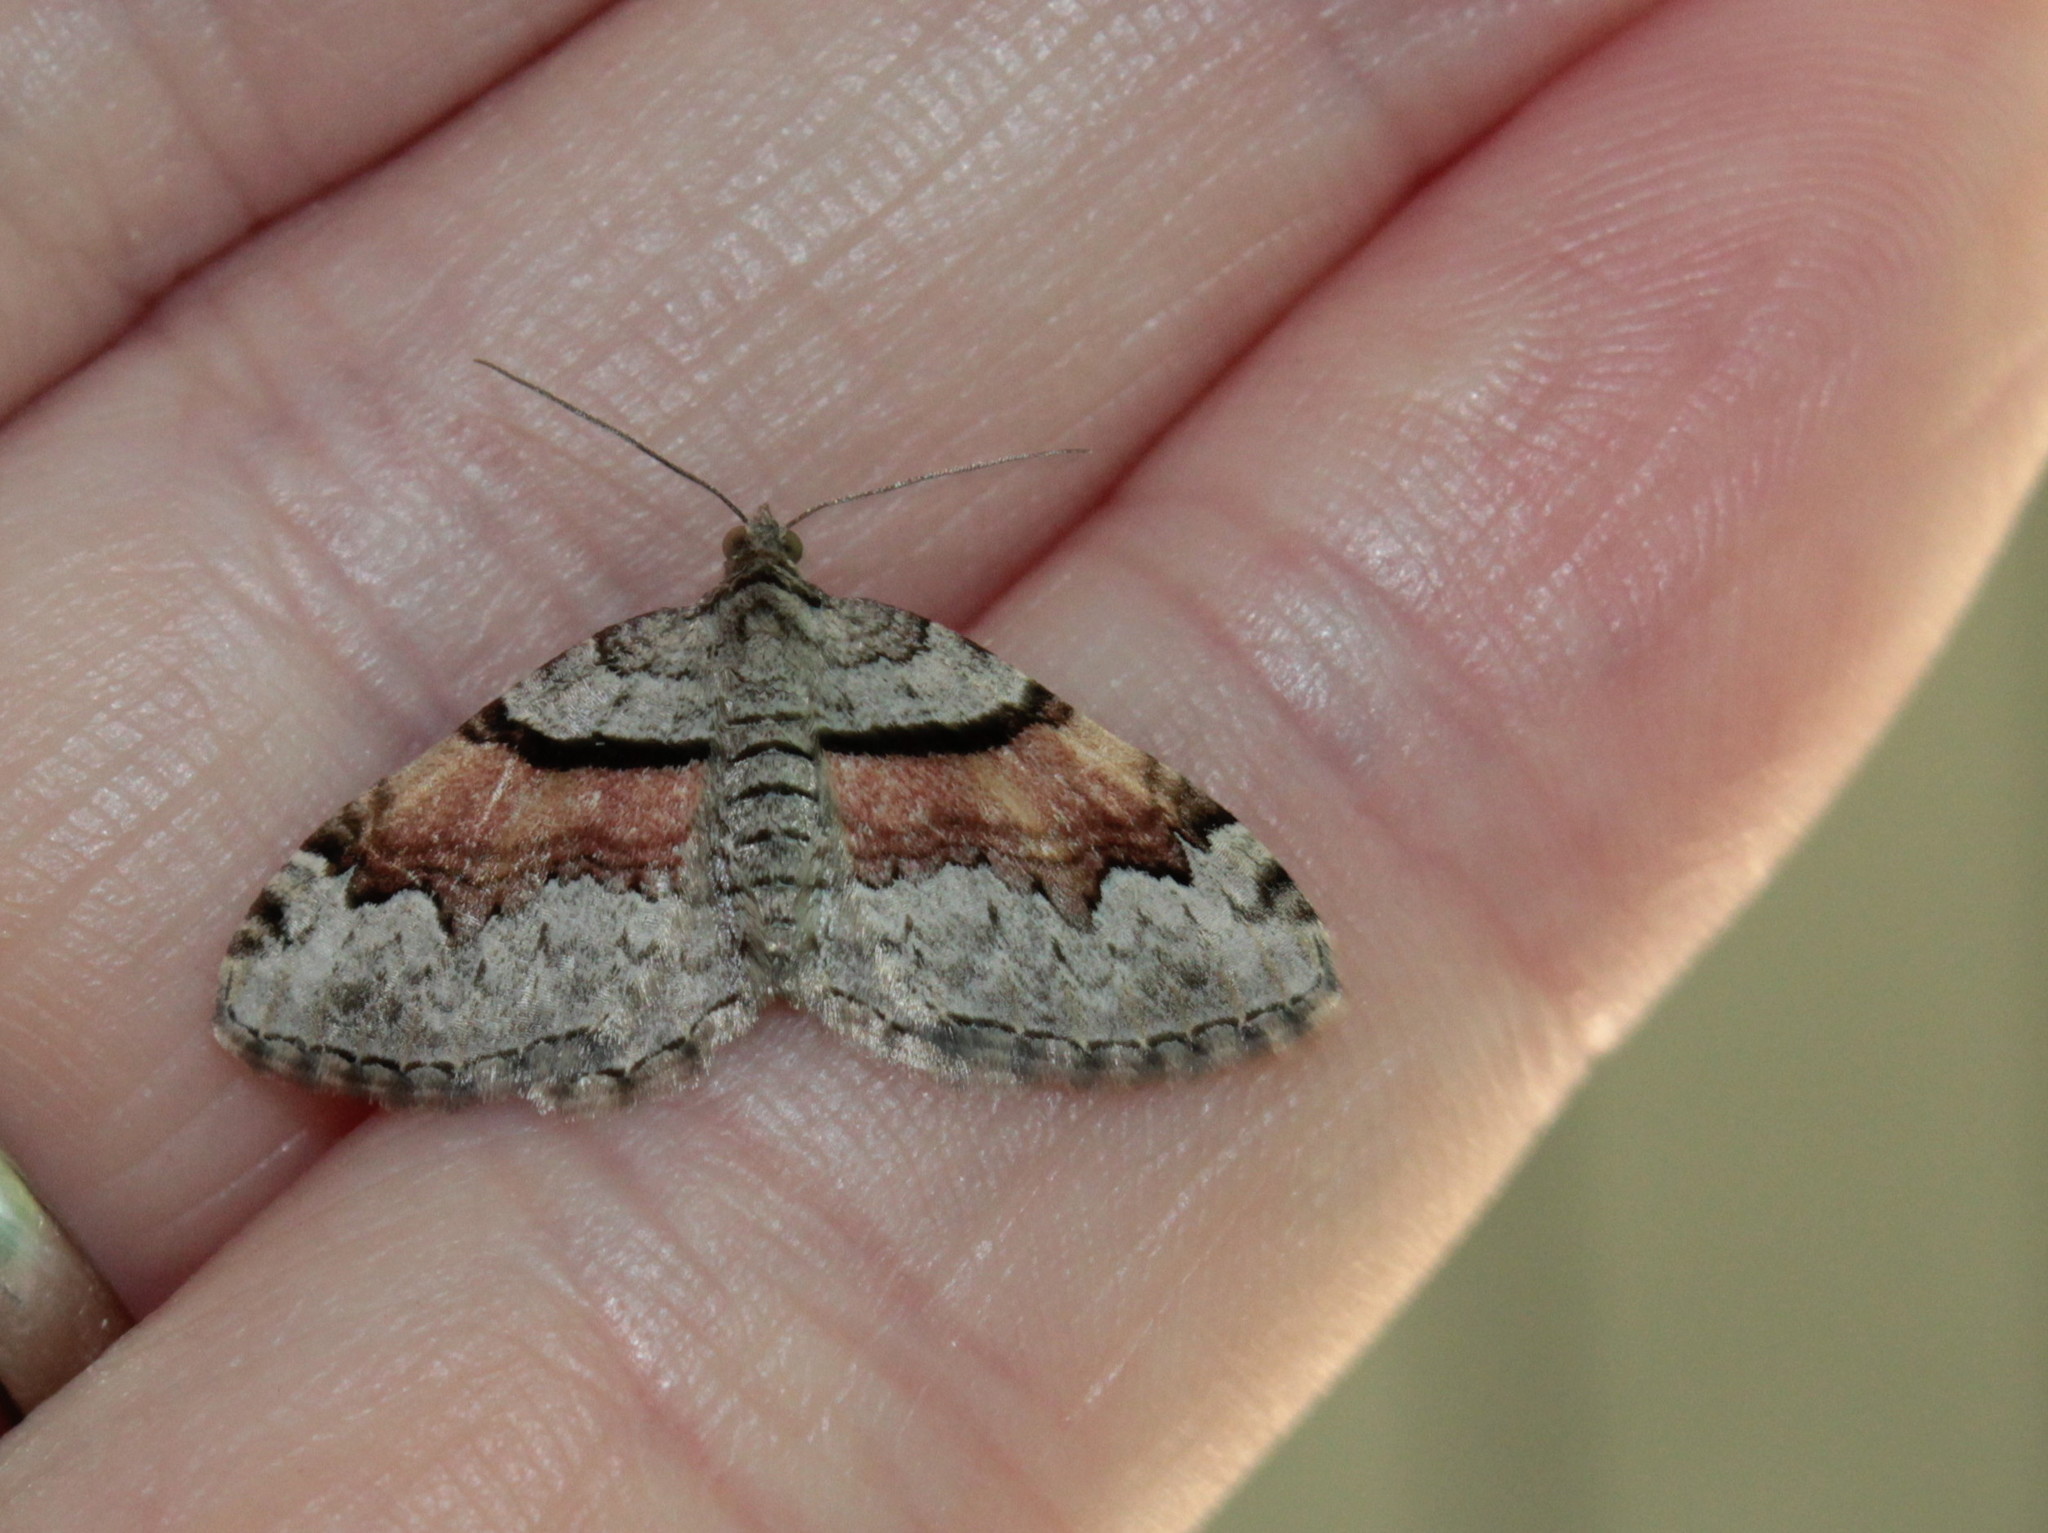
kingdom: Animalia
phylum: Arthropoda
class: Insecta
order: Lepidoptera
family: Geometridae
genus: Xanthorhoe
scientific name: Xanthorhoe packardata
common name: Packard's carpet
